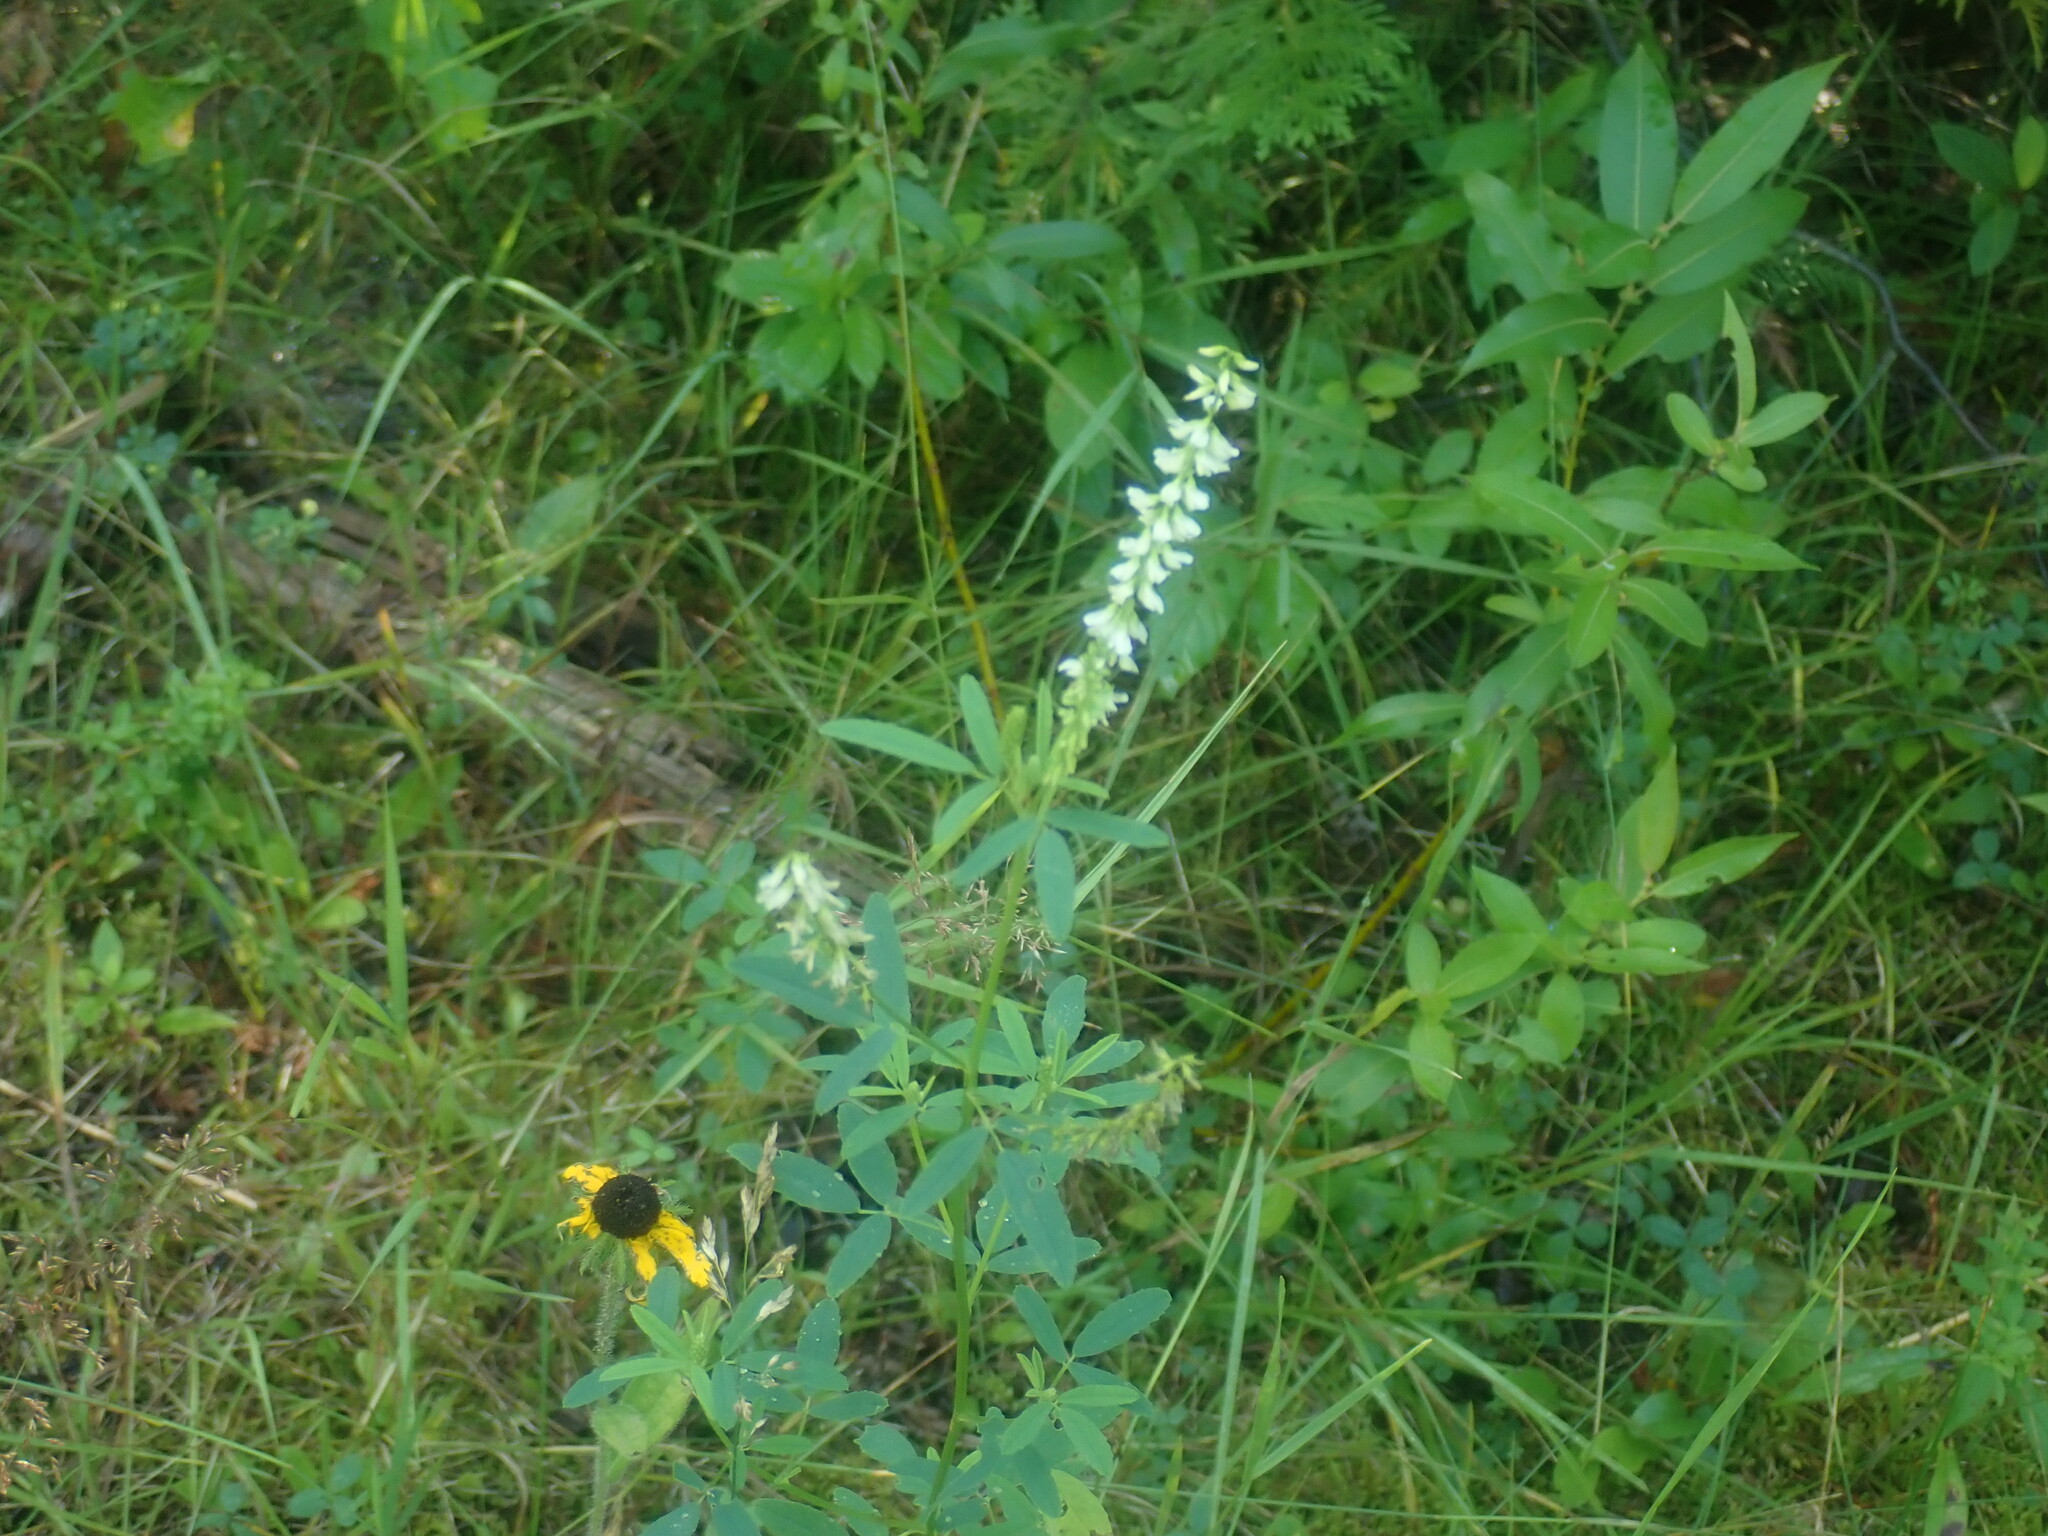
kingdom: Plantae
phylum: Tracheophyta
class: Magnoliopsida
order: Fabales
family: Fabaceae
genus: Melilotus
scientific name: Melilotus albus
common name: White melilot
